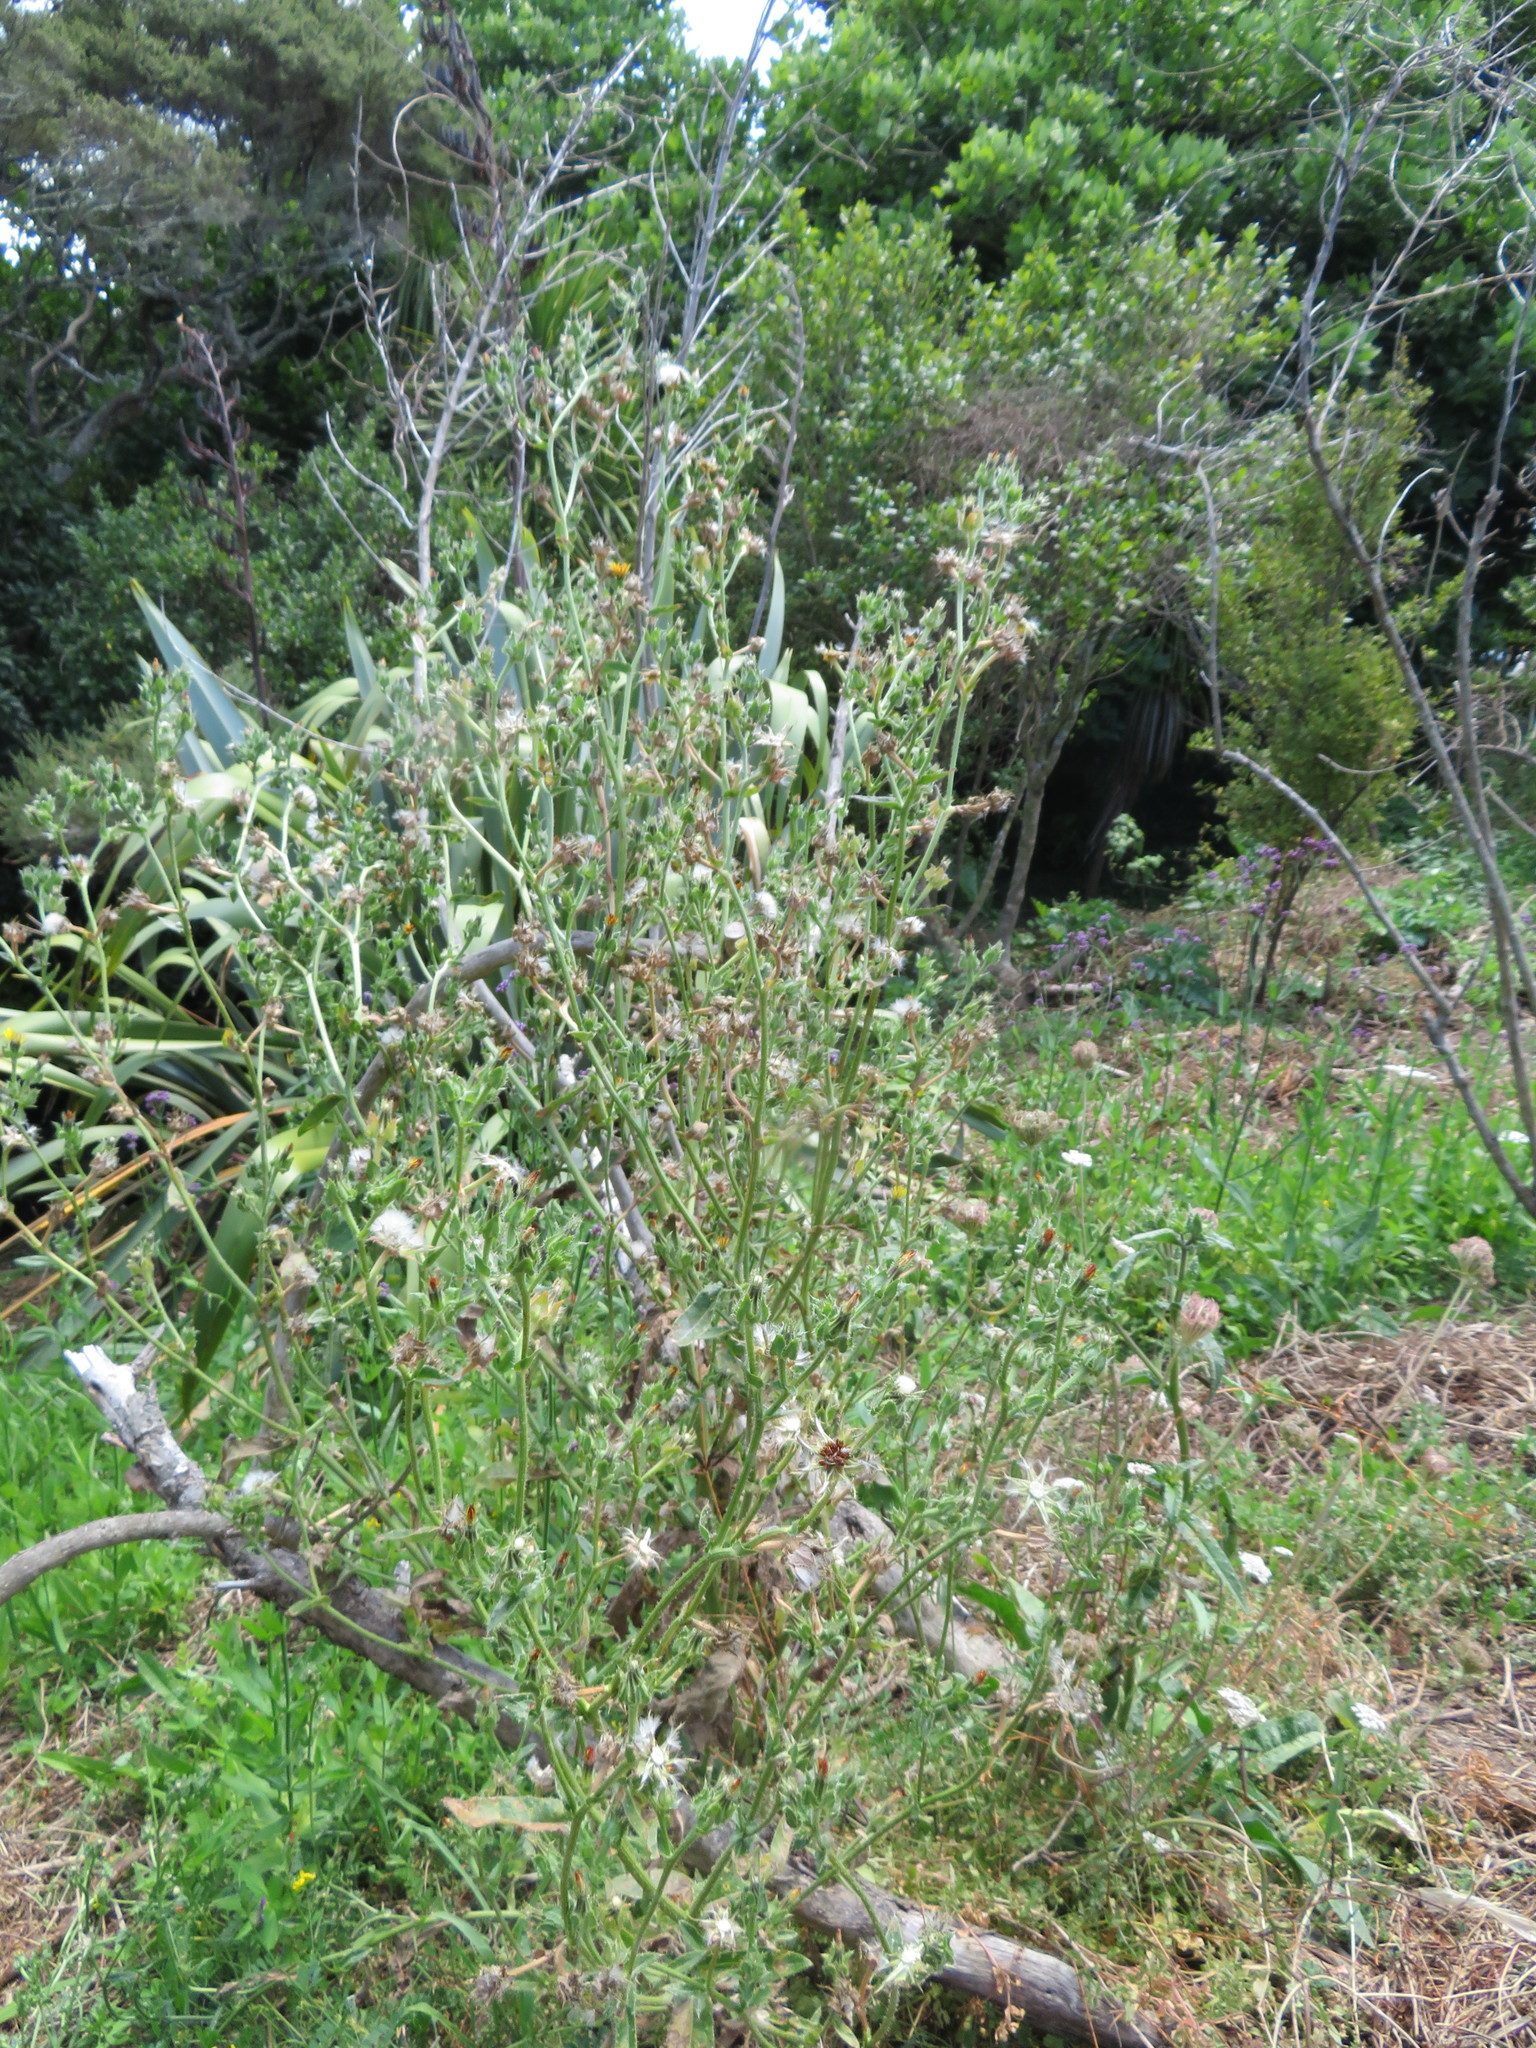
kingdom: Plantae
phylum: Tracheophyta
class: Magnoliopsida
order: Asterales
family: Asteraceae
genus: Helminthotheca
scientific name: Helminthotheca echioides
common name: Ox-tongue
